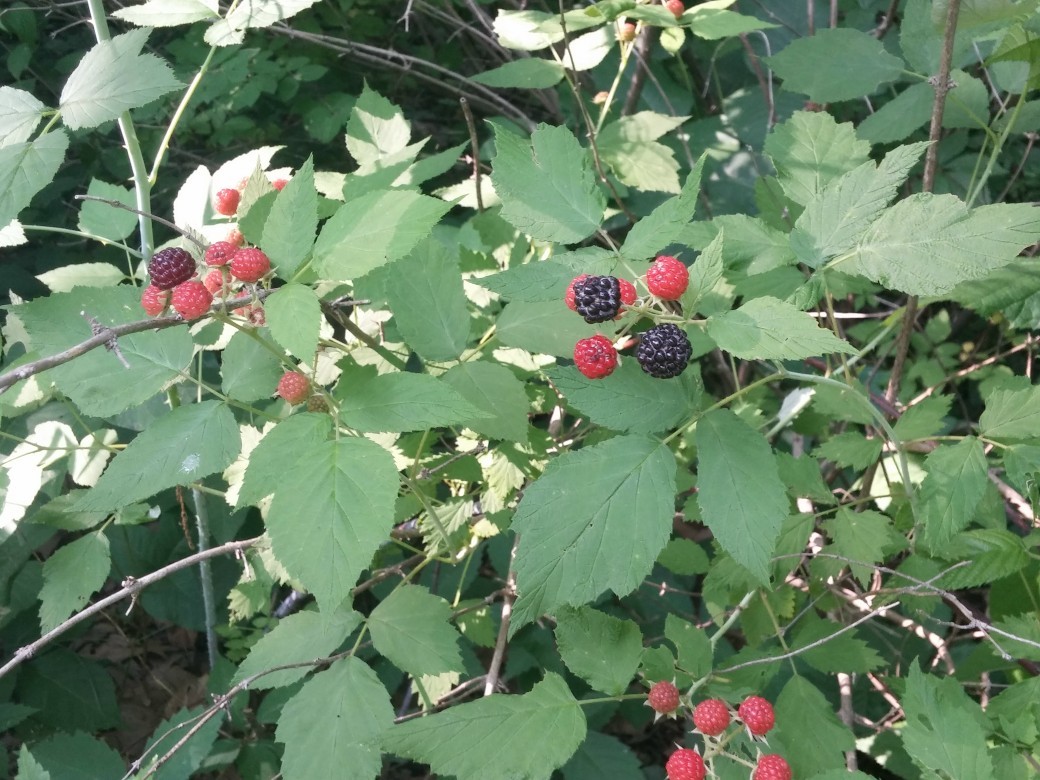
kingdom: Plantae
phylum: Tracheophyta
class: Magnoliopsida
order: Rosales
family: Rosaceae
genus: Rubus
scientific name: Rubus occidentalis
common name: Black raspberry
